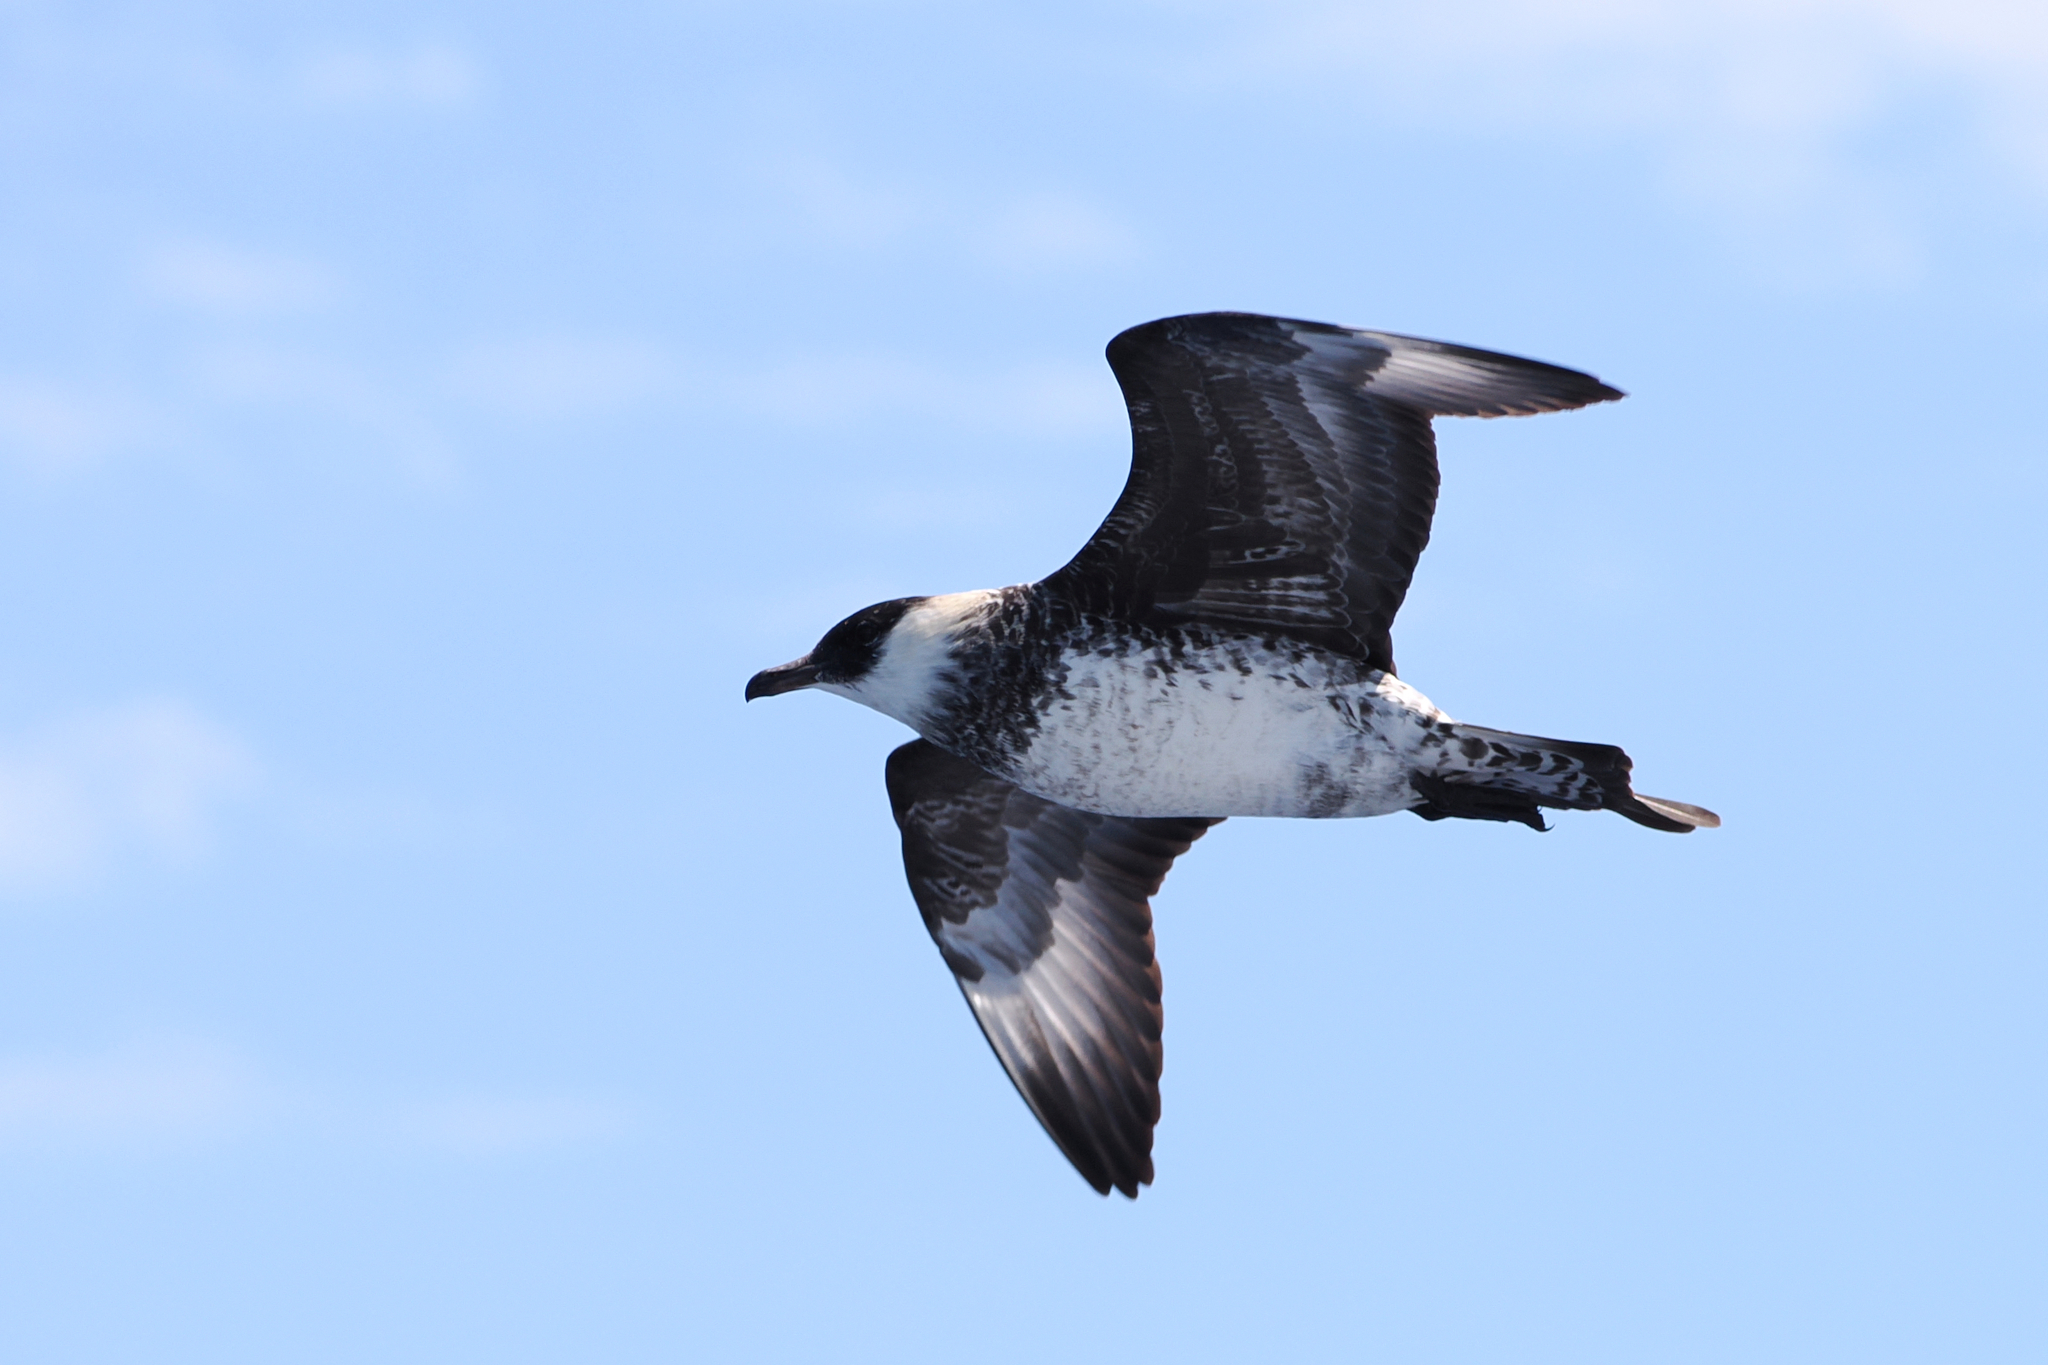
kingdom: Animalia
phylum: Chordata
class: Aves
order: Charadriiformes
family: Stercorariidae
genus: Stercorarius
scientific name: Stercorarius pomarinus
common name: Pomarine jaeger
